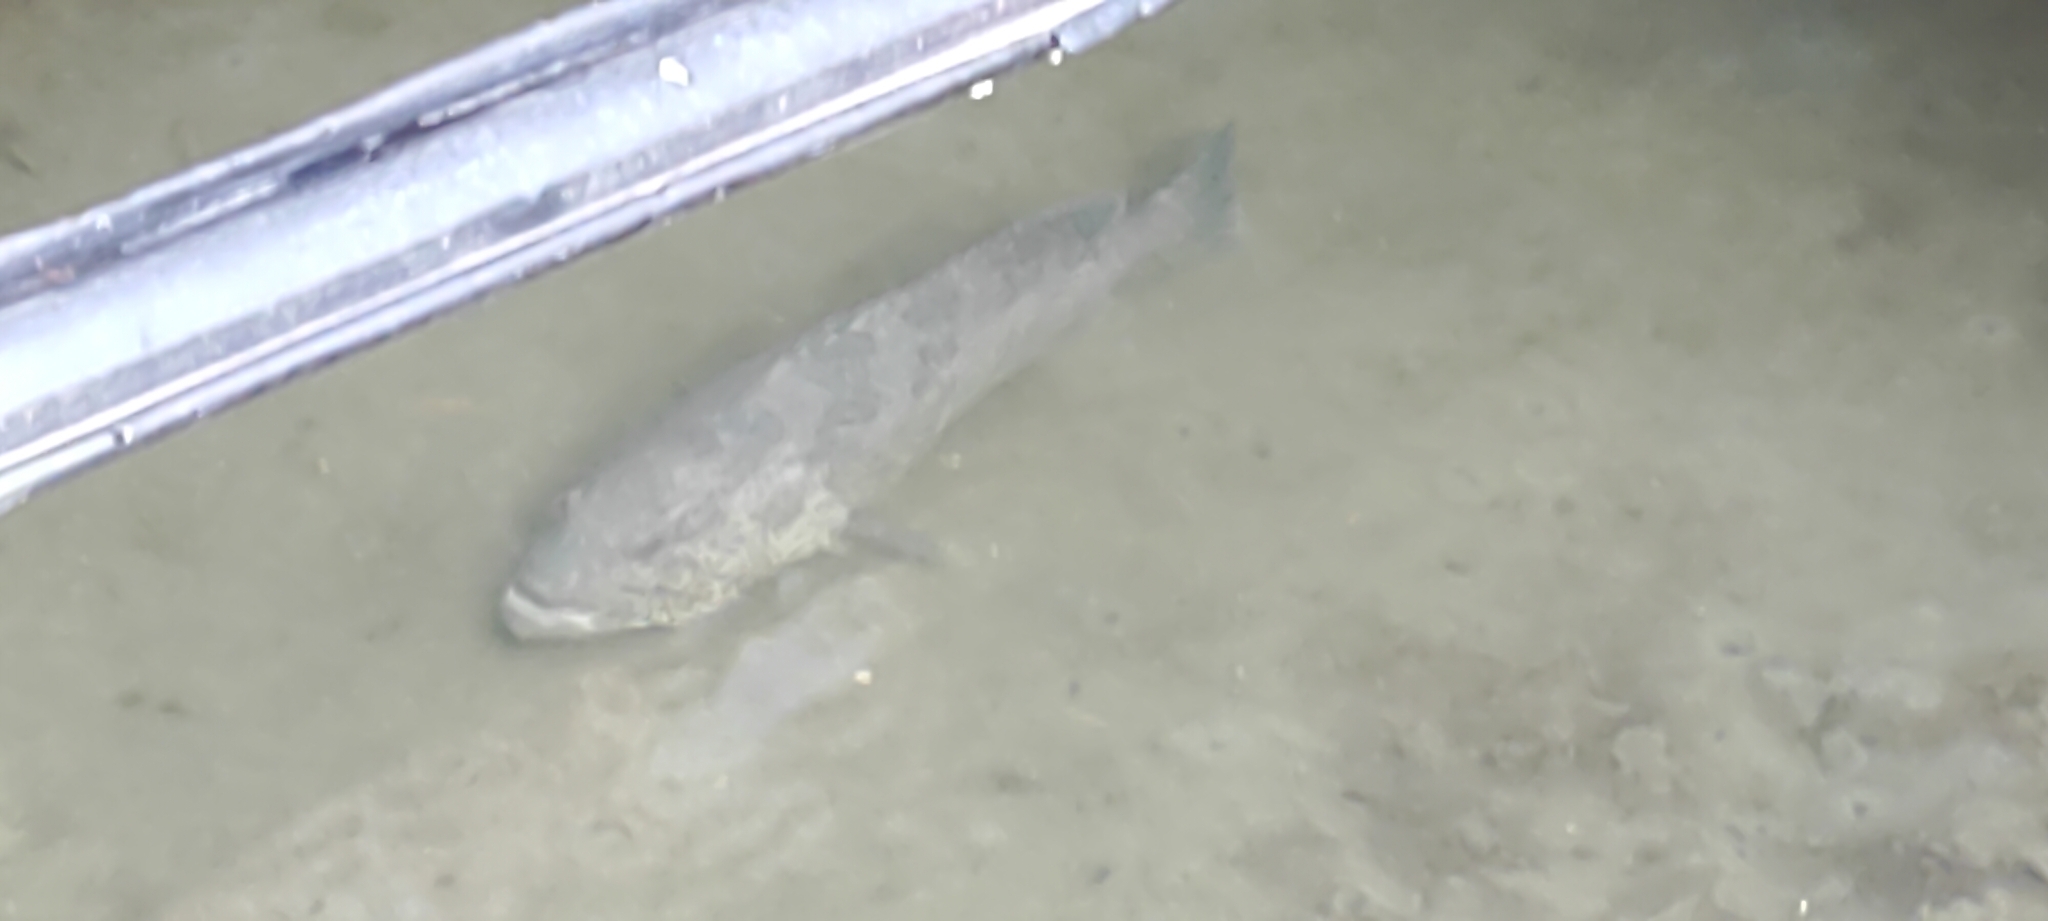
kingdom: Animalia
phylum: Chordata
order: Perciformes
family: Serranidae
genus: Epinephelus
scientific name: Epinephelus coioides
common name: Orange-spotted grouper
